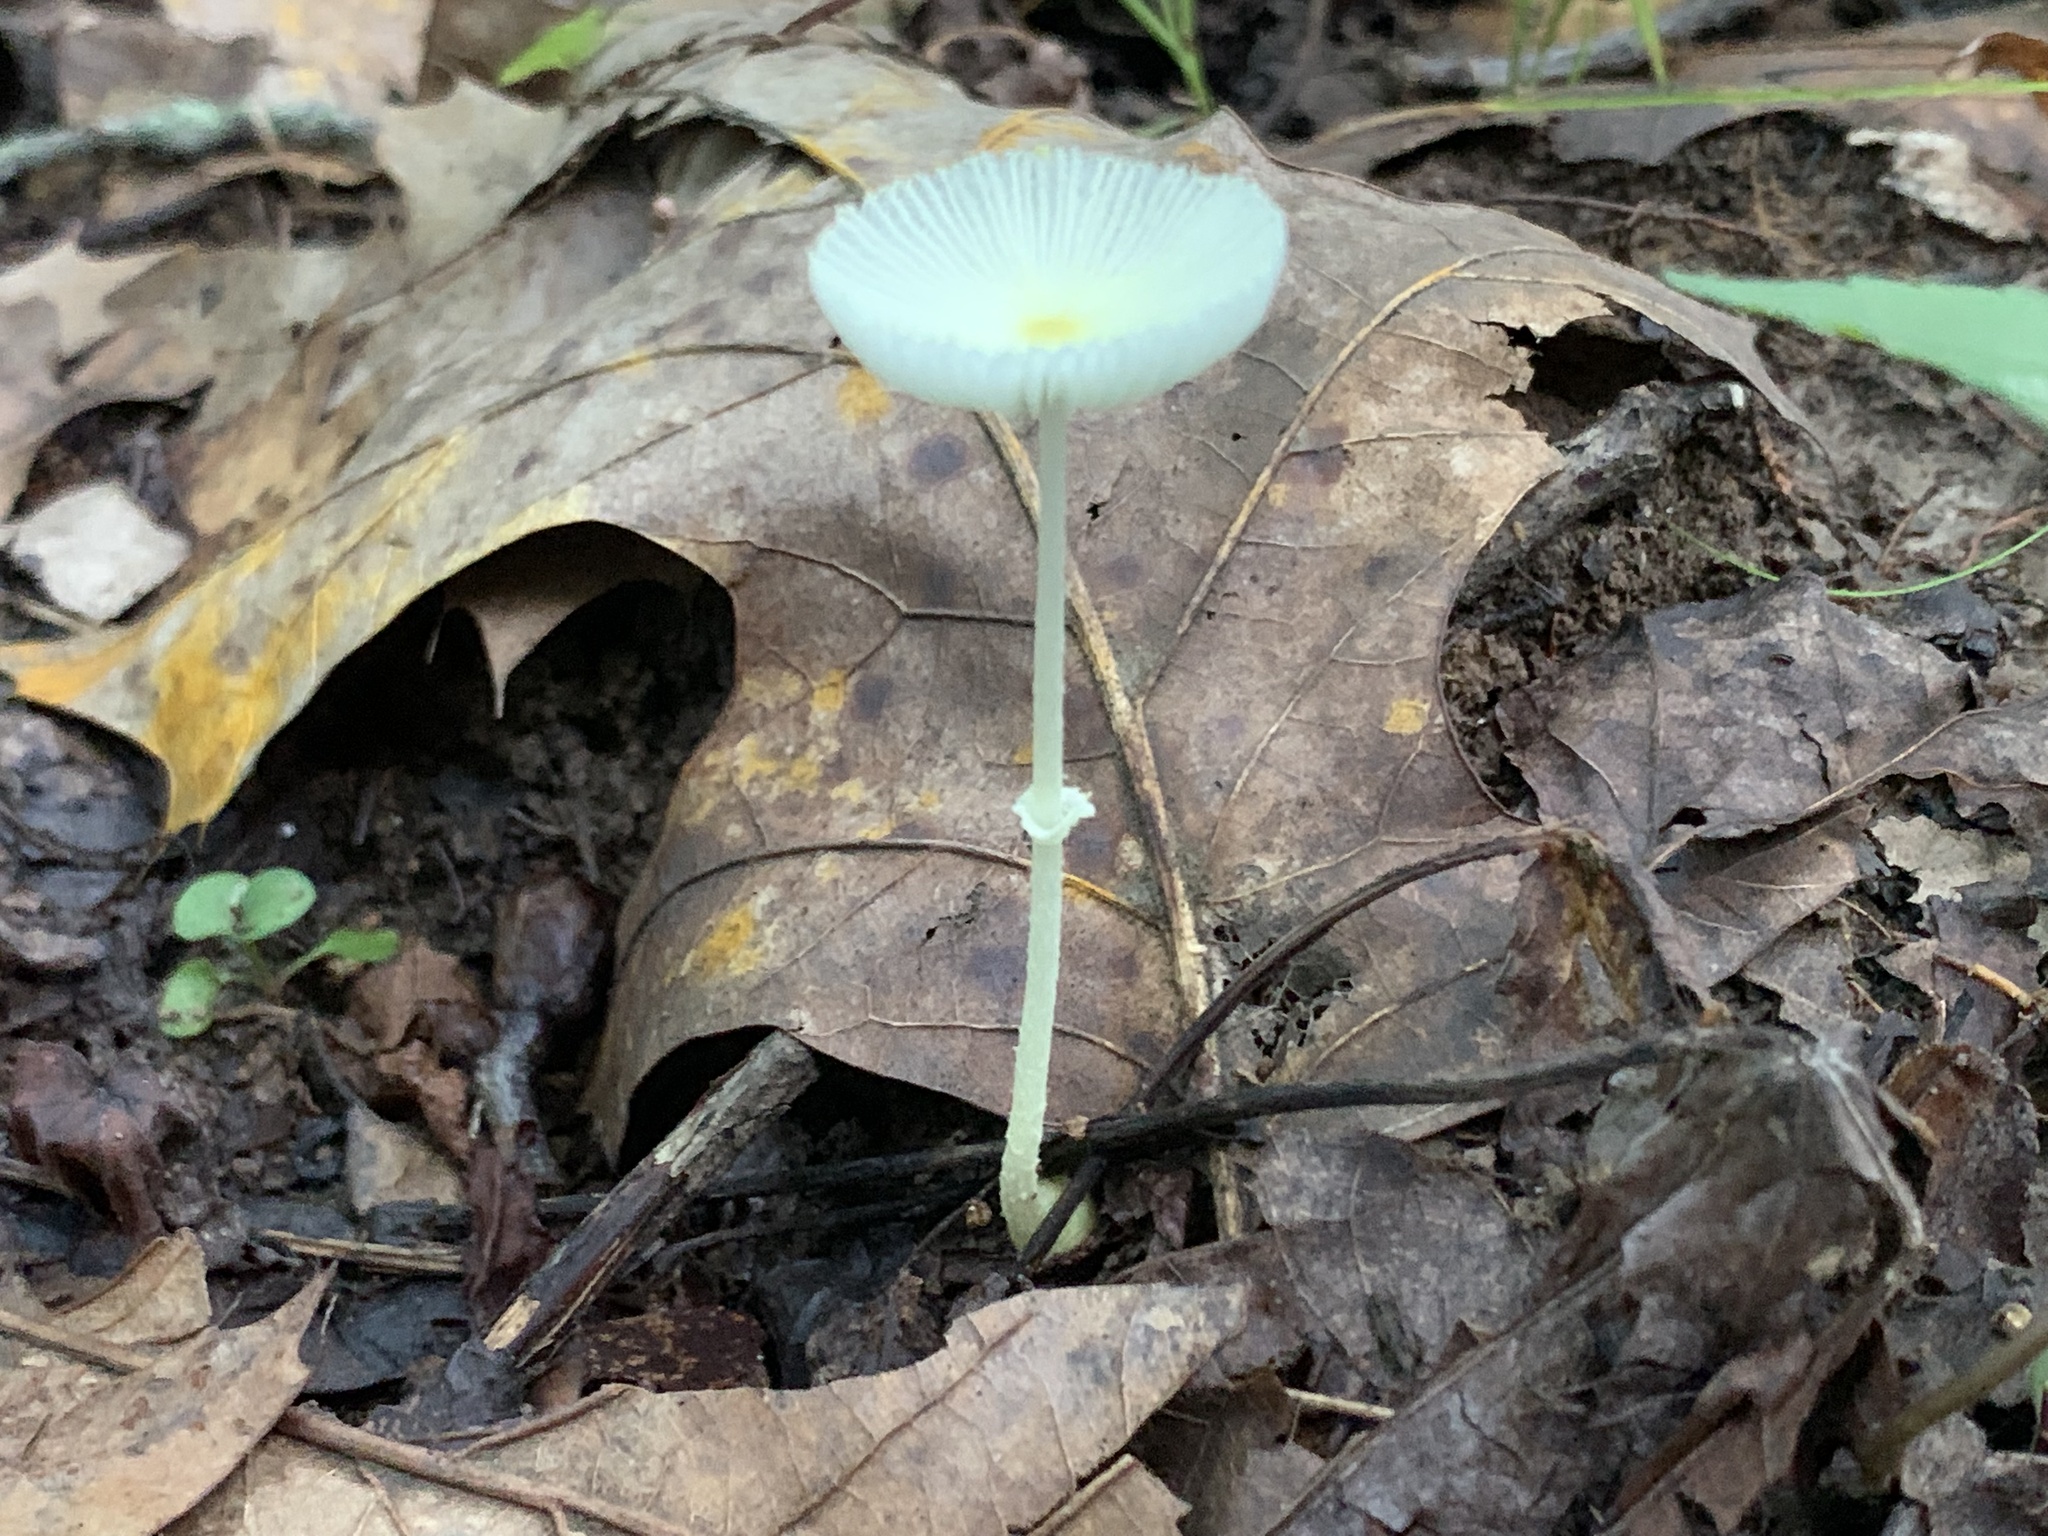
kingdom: Fungi
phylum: Basidiomycota
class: Agaricomycetes
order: Agaricales
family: Agaricaceae
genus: Leucocoprinus
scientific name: Leucocoprinus fragilissimus
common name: Fragile dapperling
